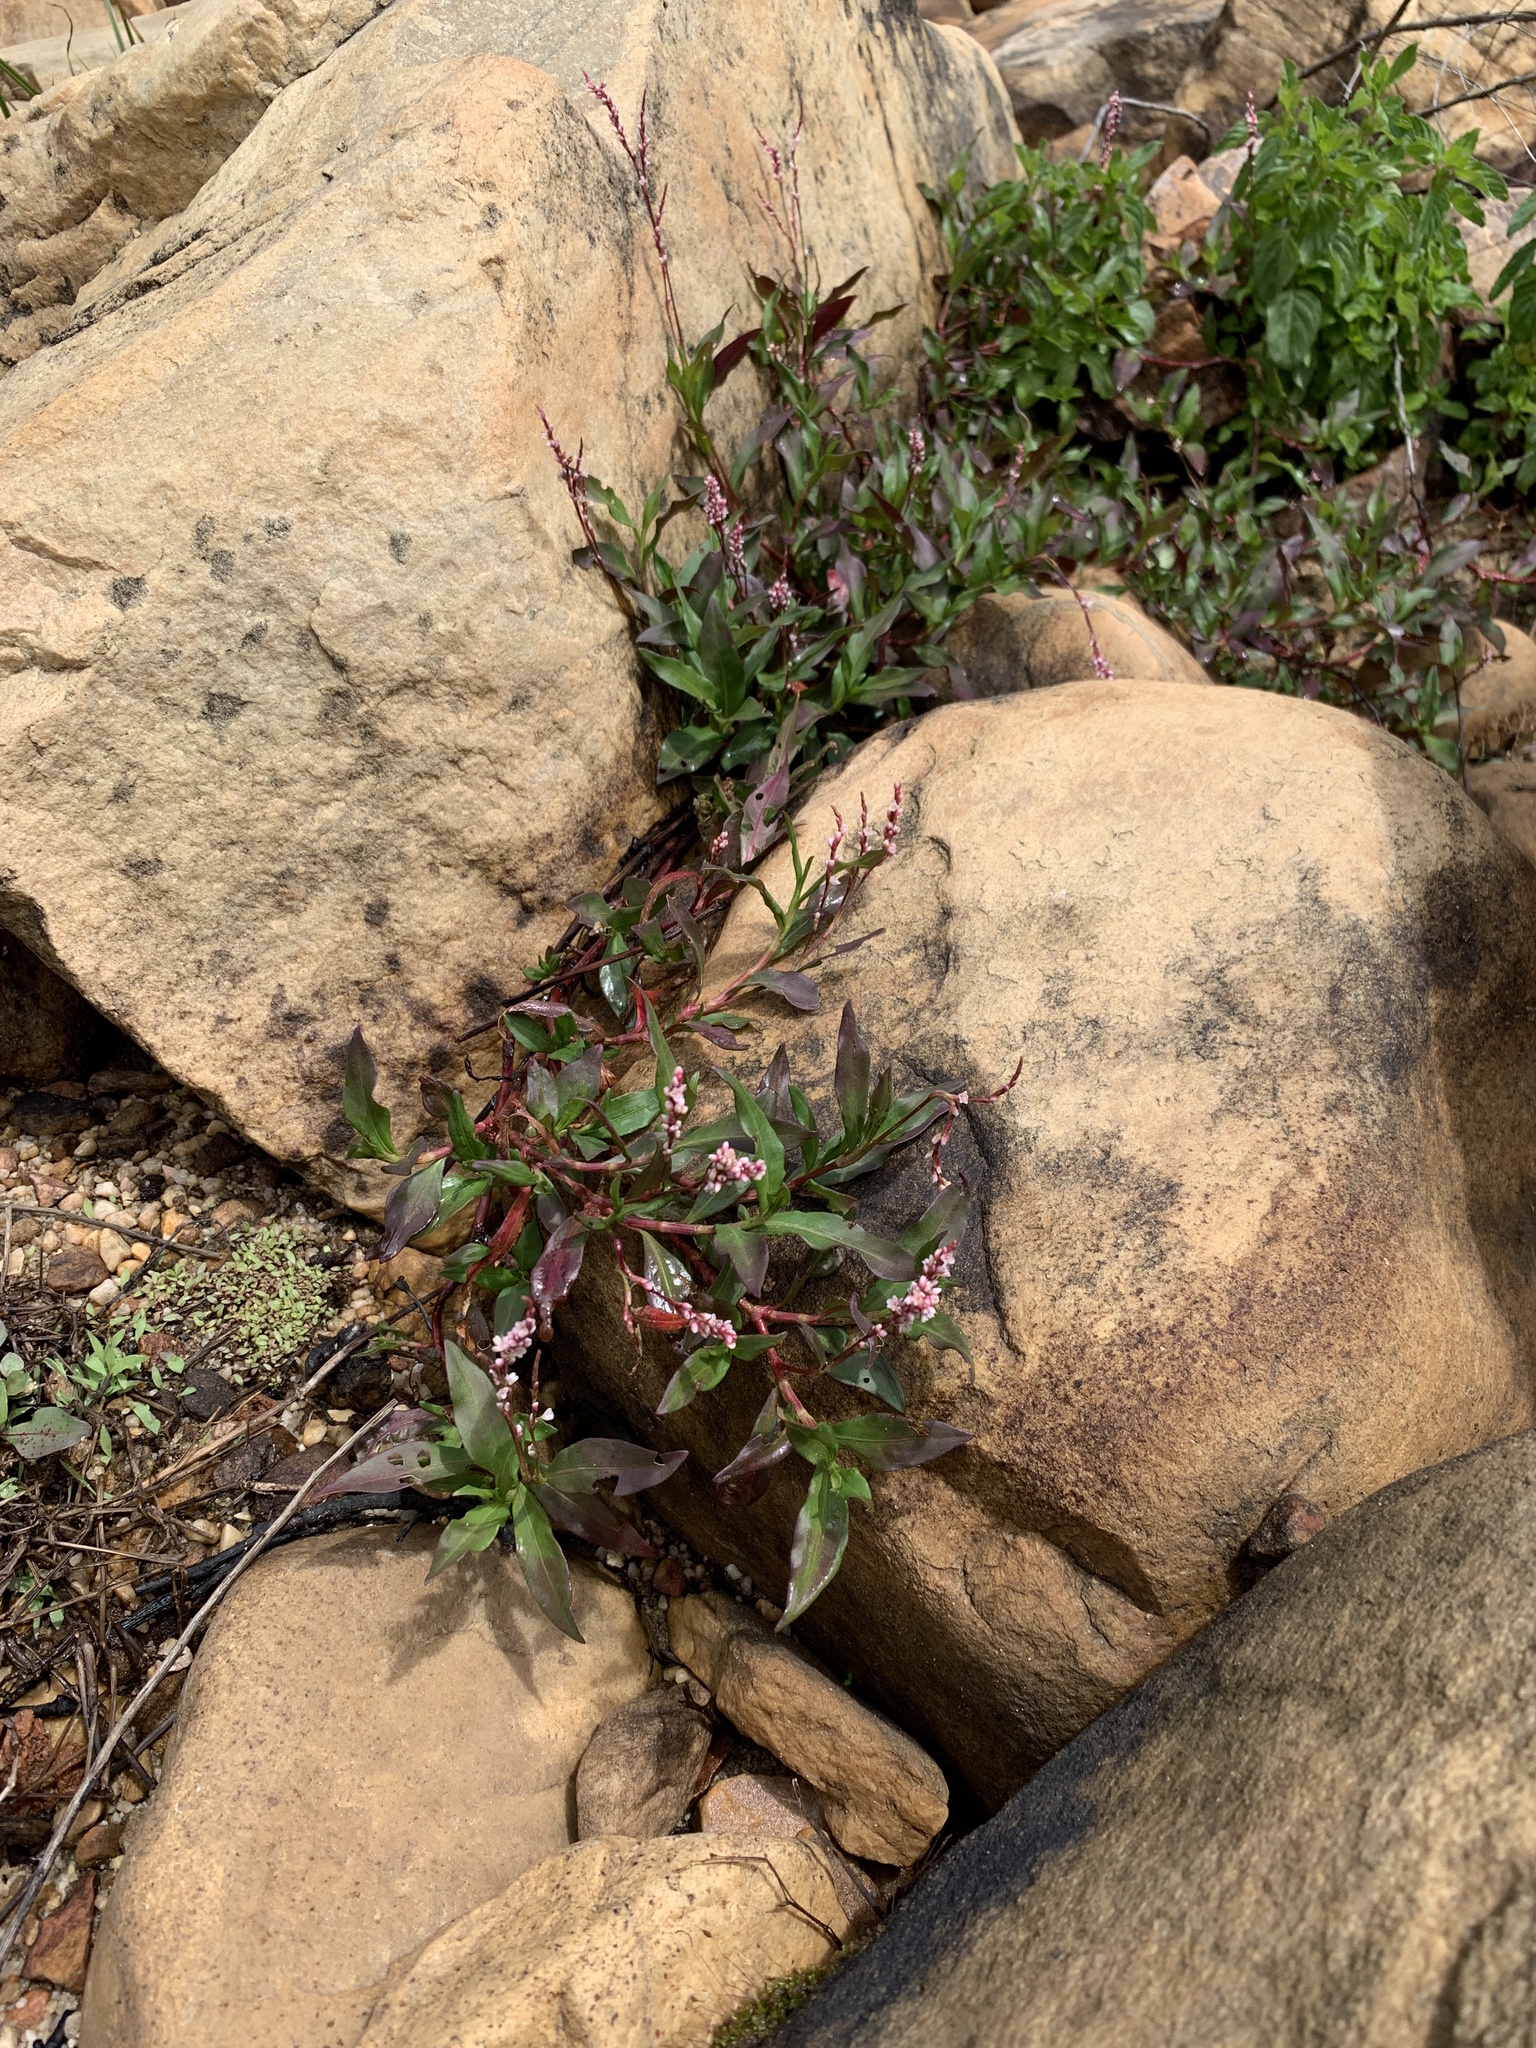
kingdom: Plantae
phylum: Tracheophyta
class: Magnoliopsida
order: Caryophyllales
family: Polygonaceae
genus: Persicaria
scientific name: Persicaria decipiens
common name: Willow-weed
